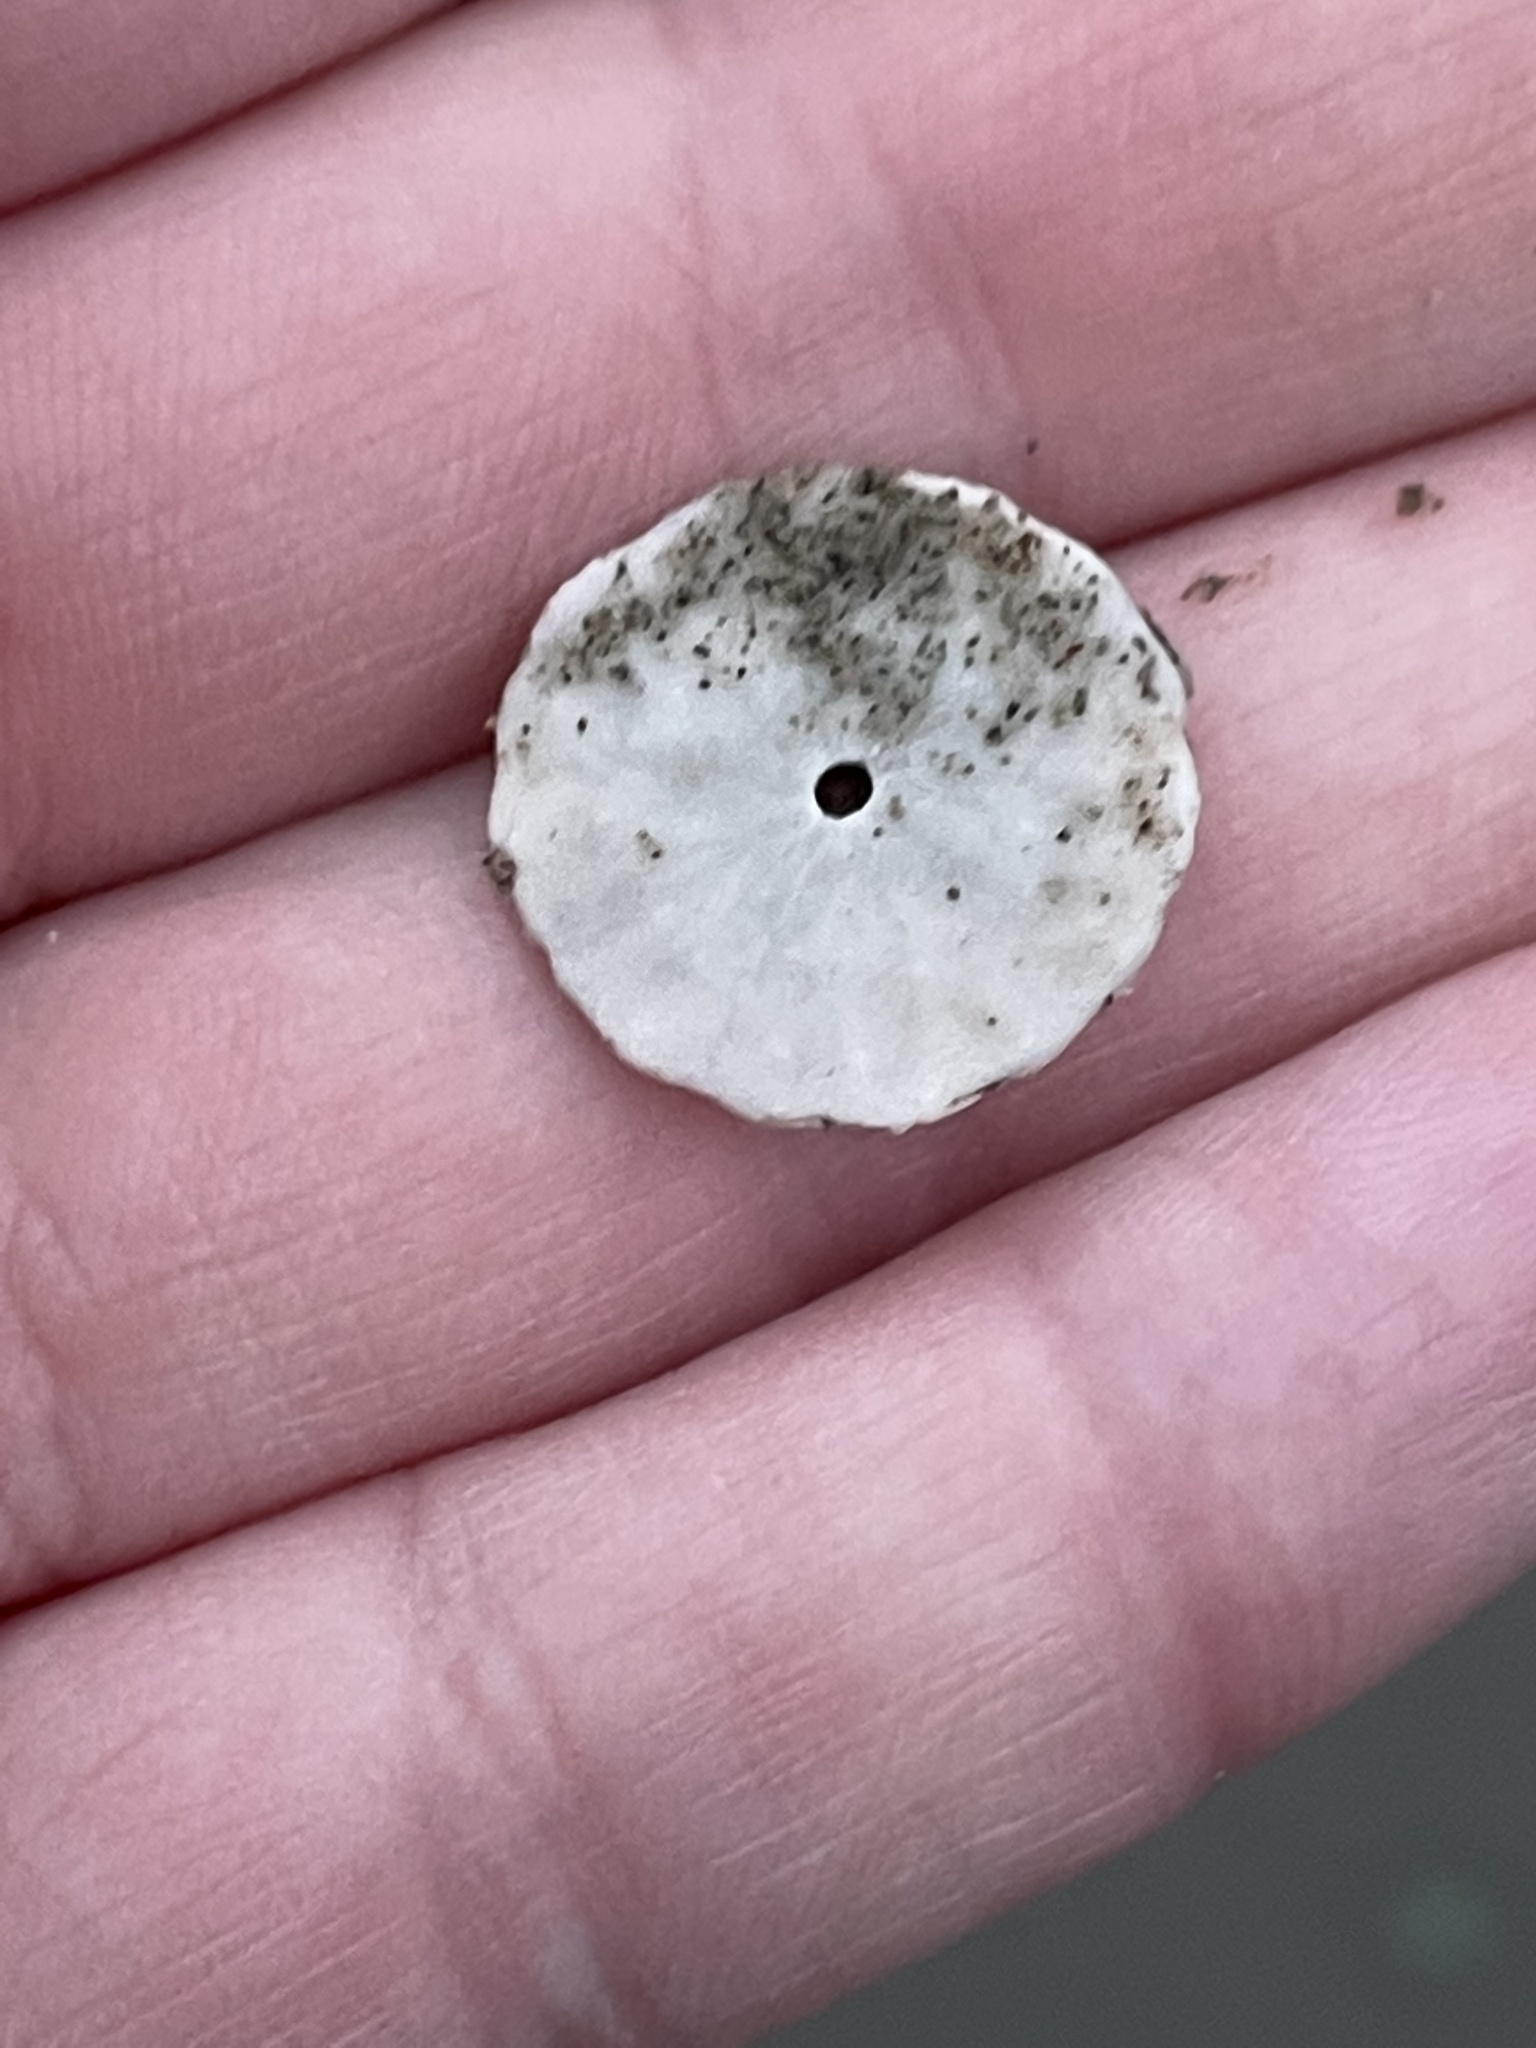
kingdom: Animalia
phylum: Echinodermata
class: Echinoidea
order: Echinolampadacea
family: Echinarachniidae
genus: Echinarachnius
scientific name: Echinarachnius parma
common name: Common sand dollar
